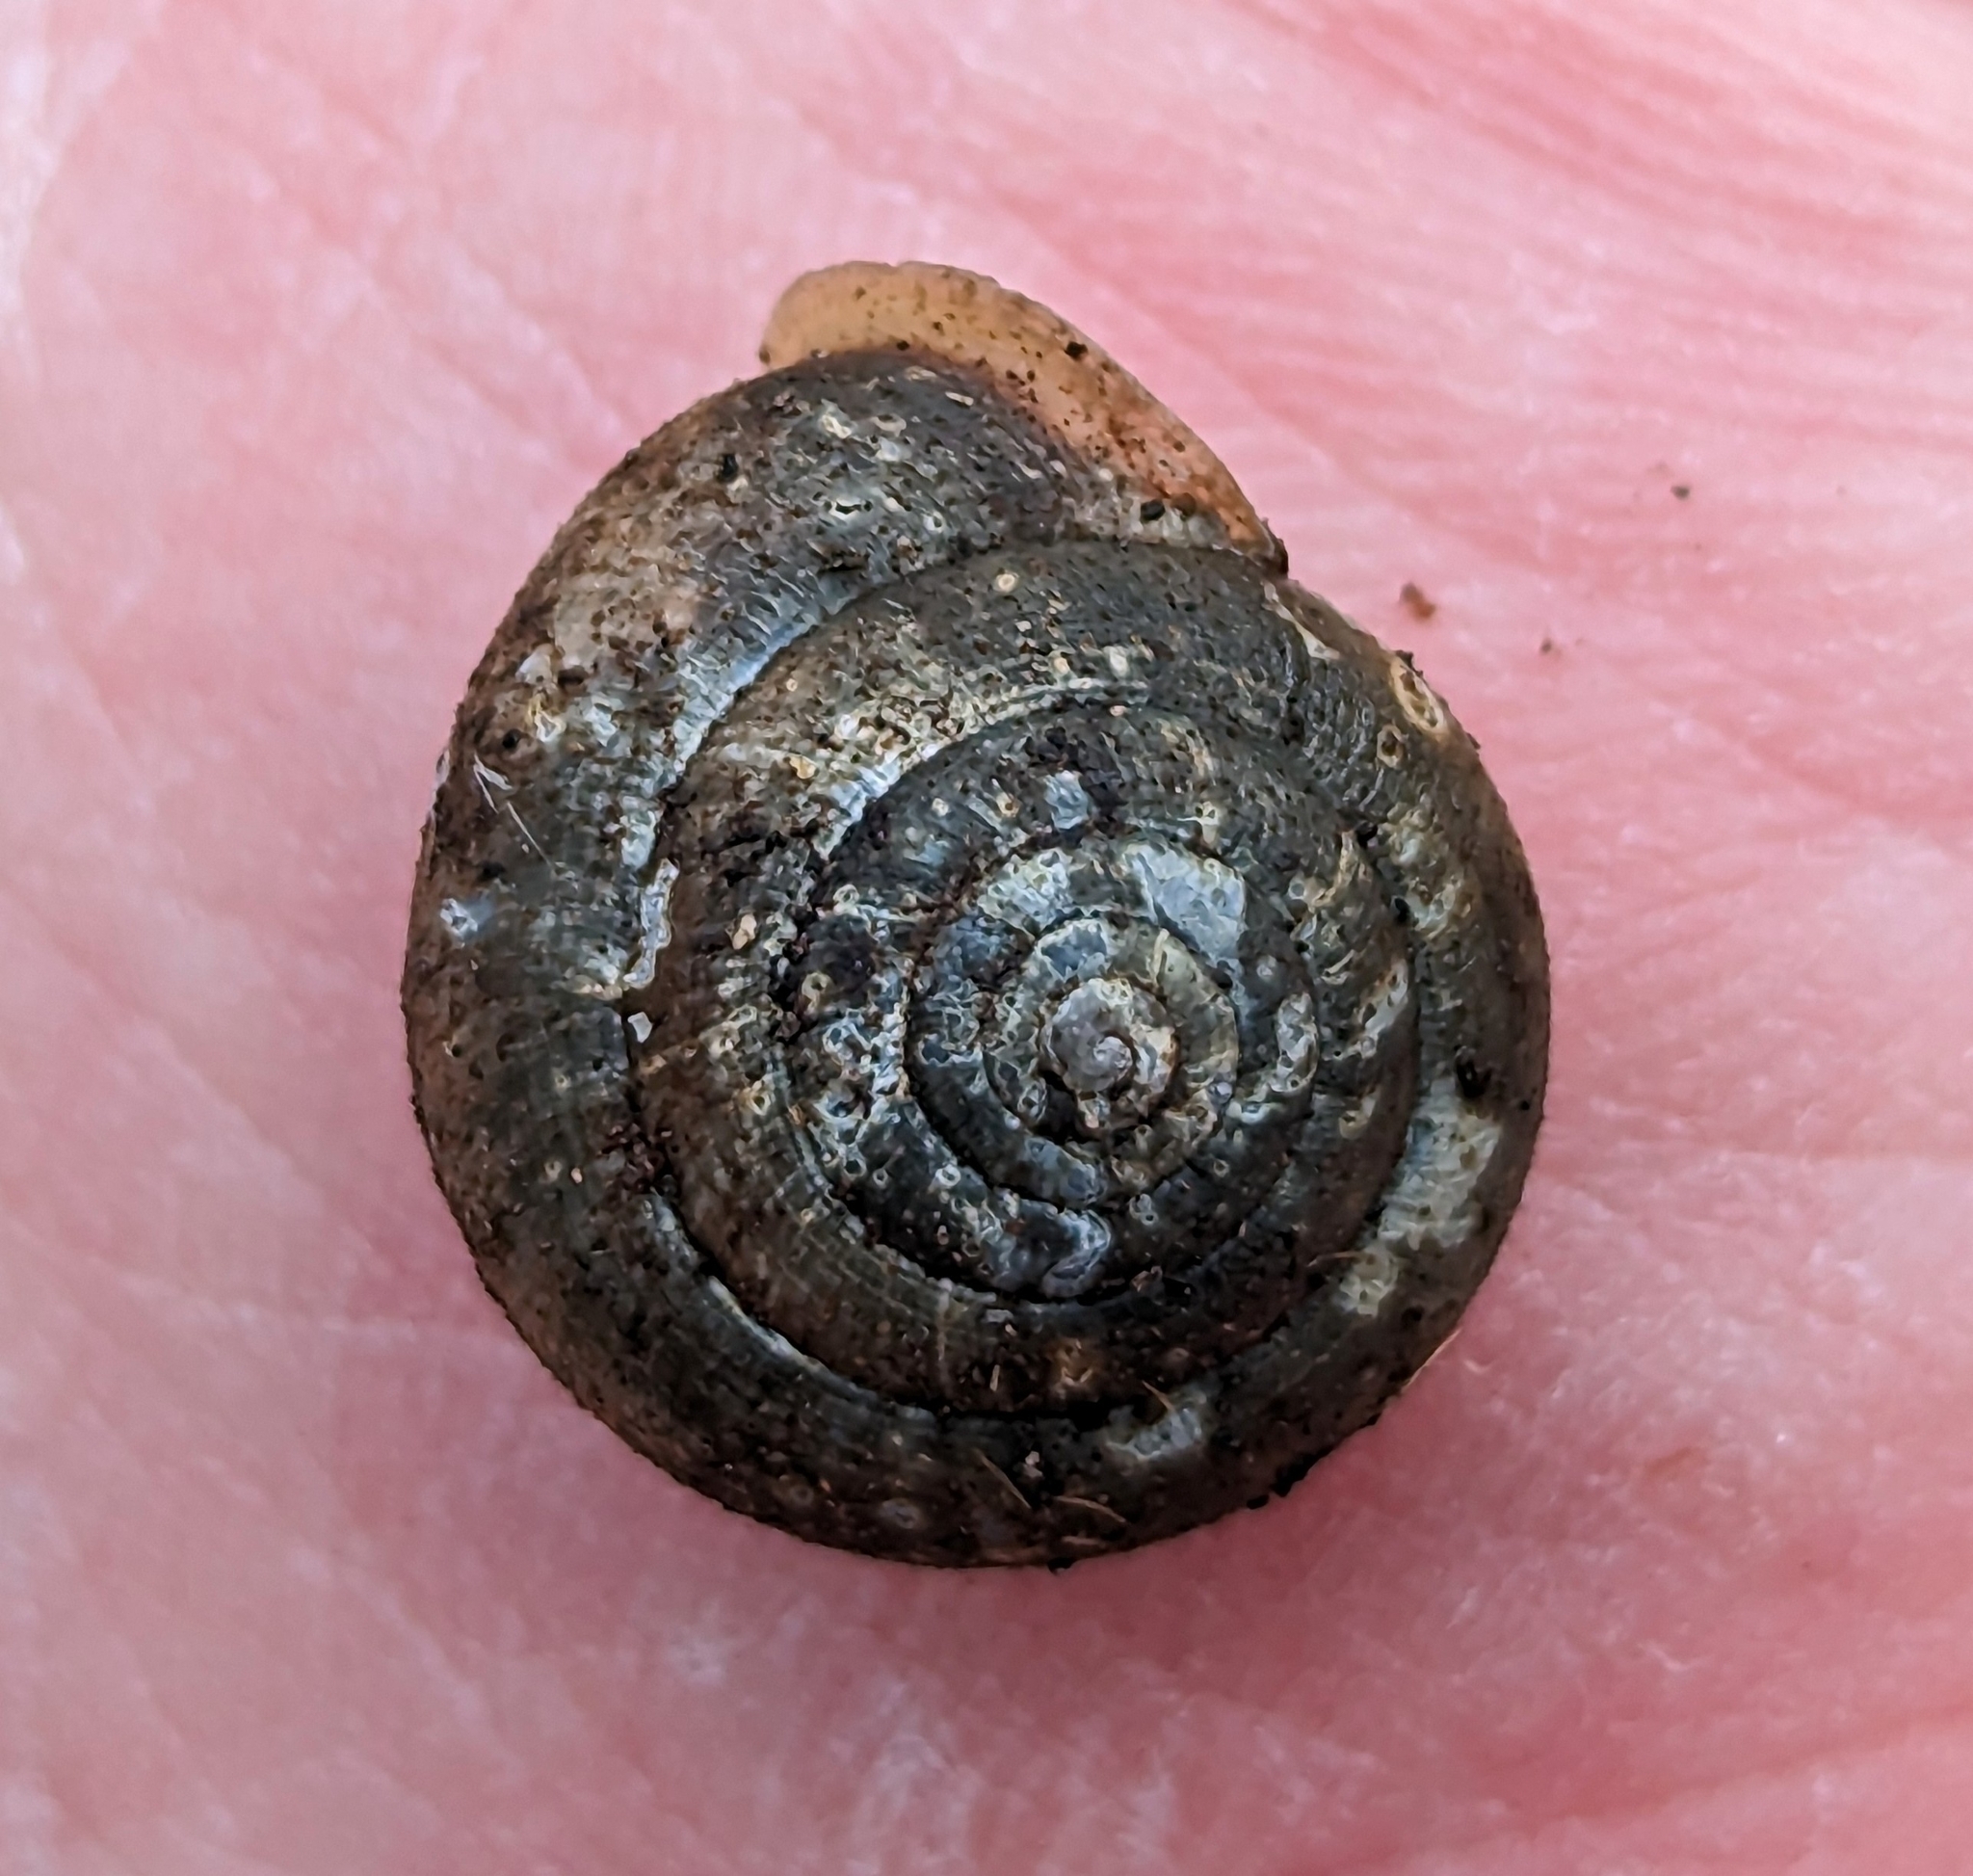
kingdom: Animalia
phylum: Mollusca
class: Gastropoda
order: Stylommatophora
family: Polygyridae
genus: Vespericola
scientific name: Vespericola columbianus
